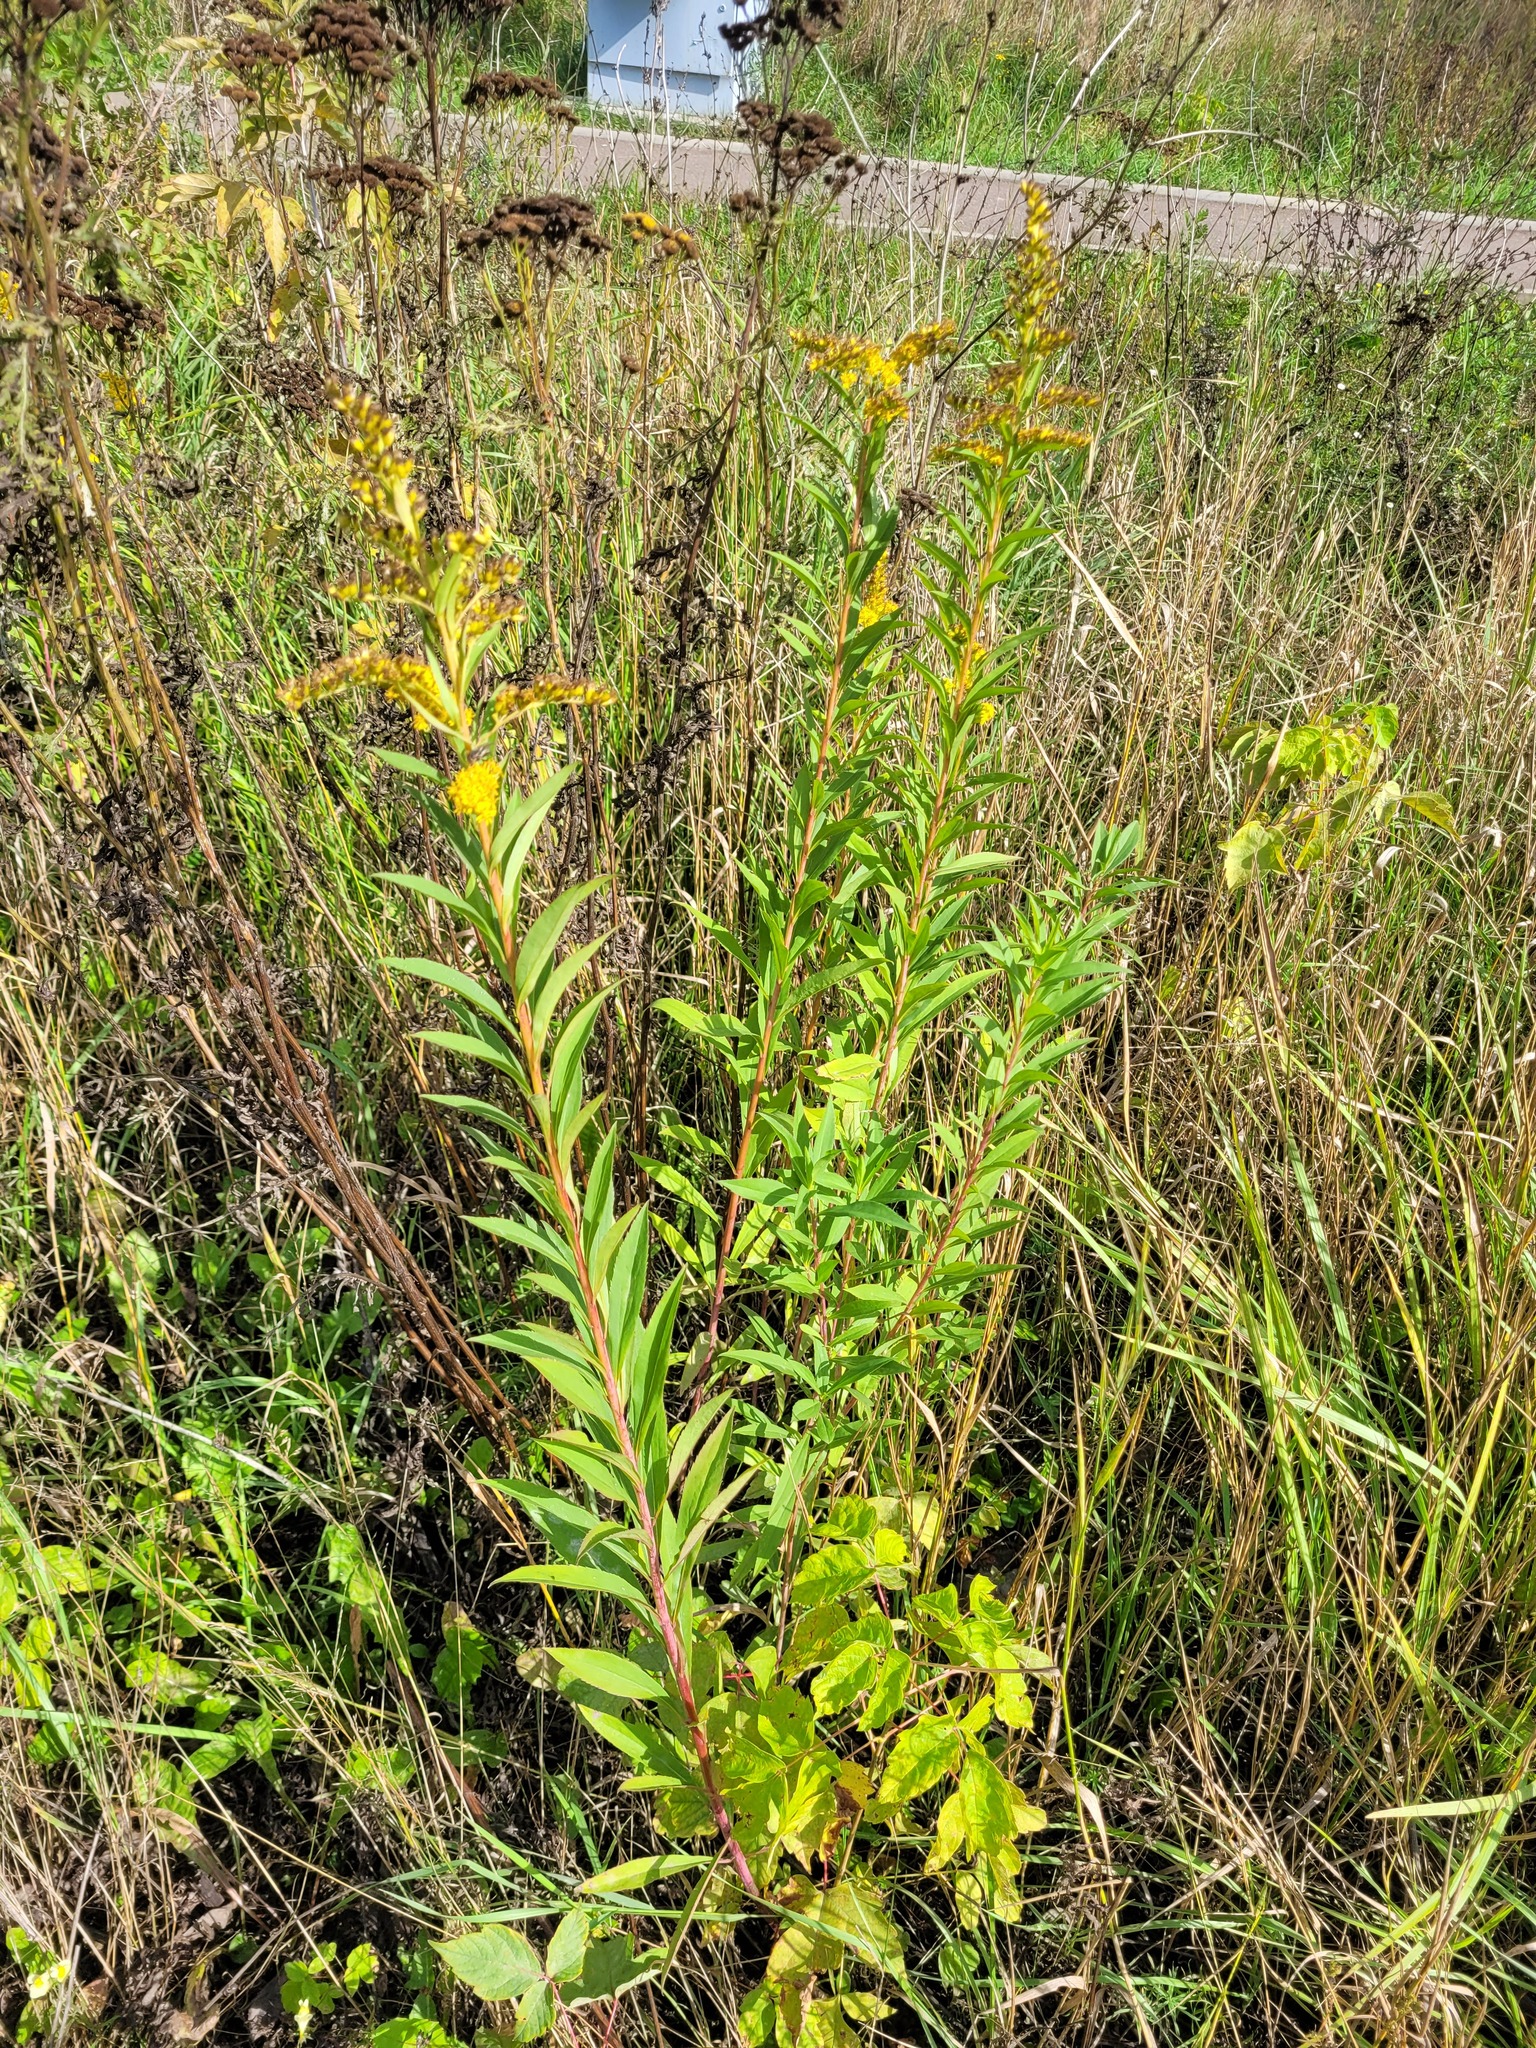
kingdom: Plantae
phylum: Tracheophyta
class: Magnoliopsida
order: Asterales
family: Asteraceae
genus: Solidago
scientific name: Solidago gigantea
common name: Giant goldenrod
